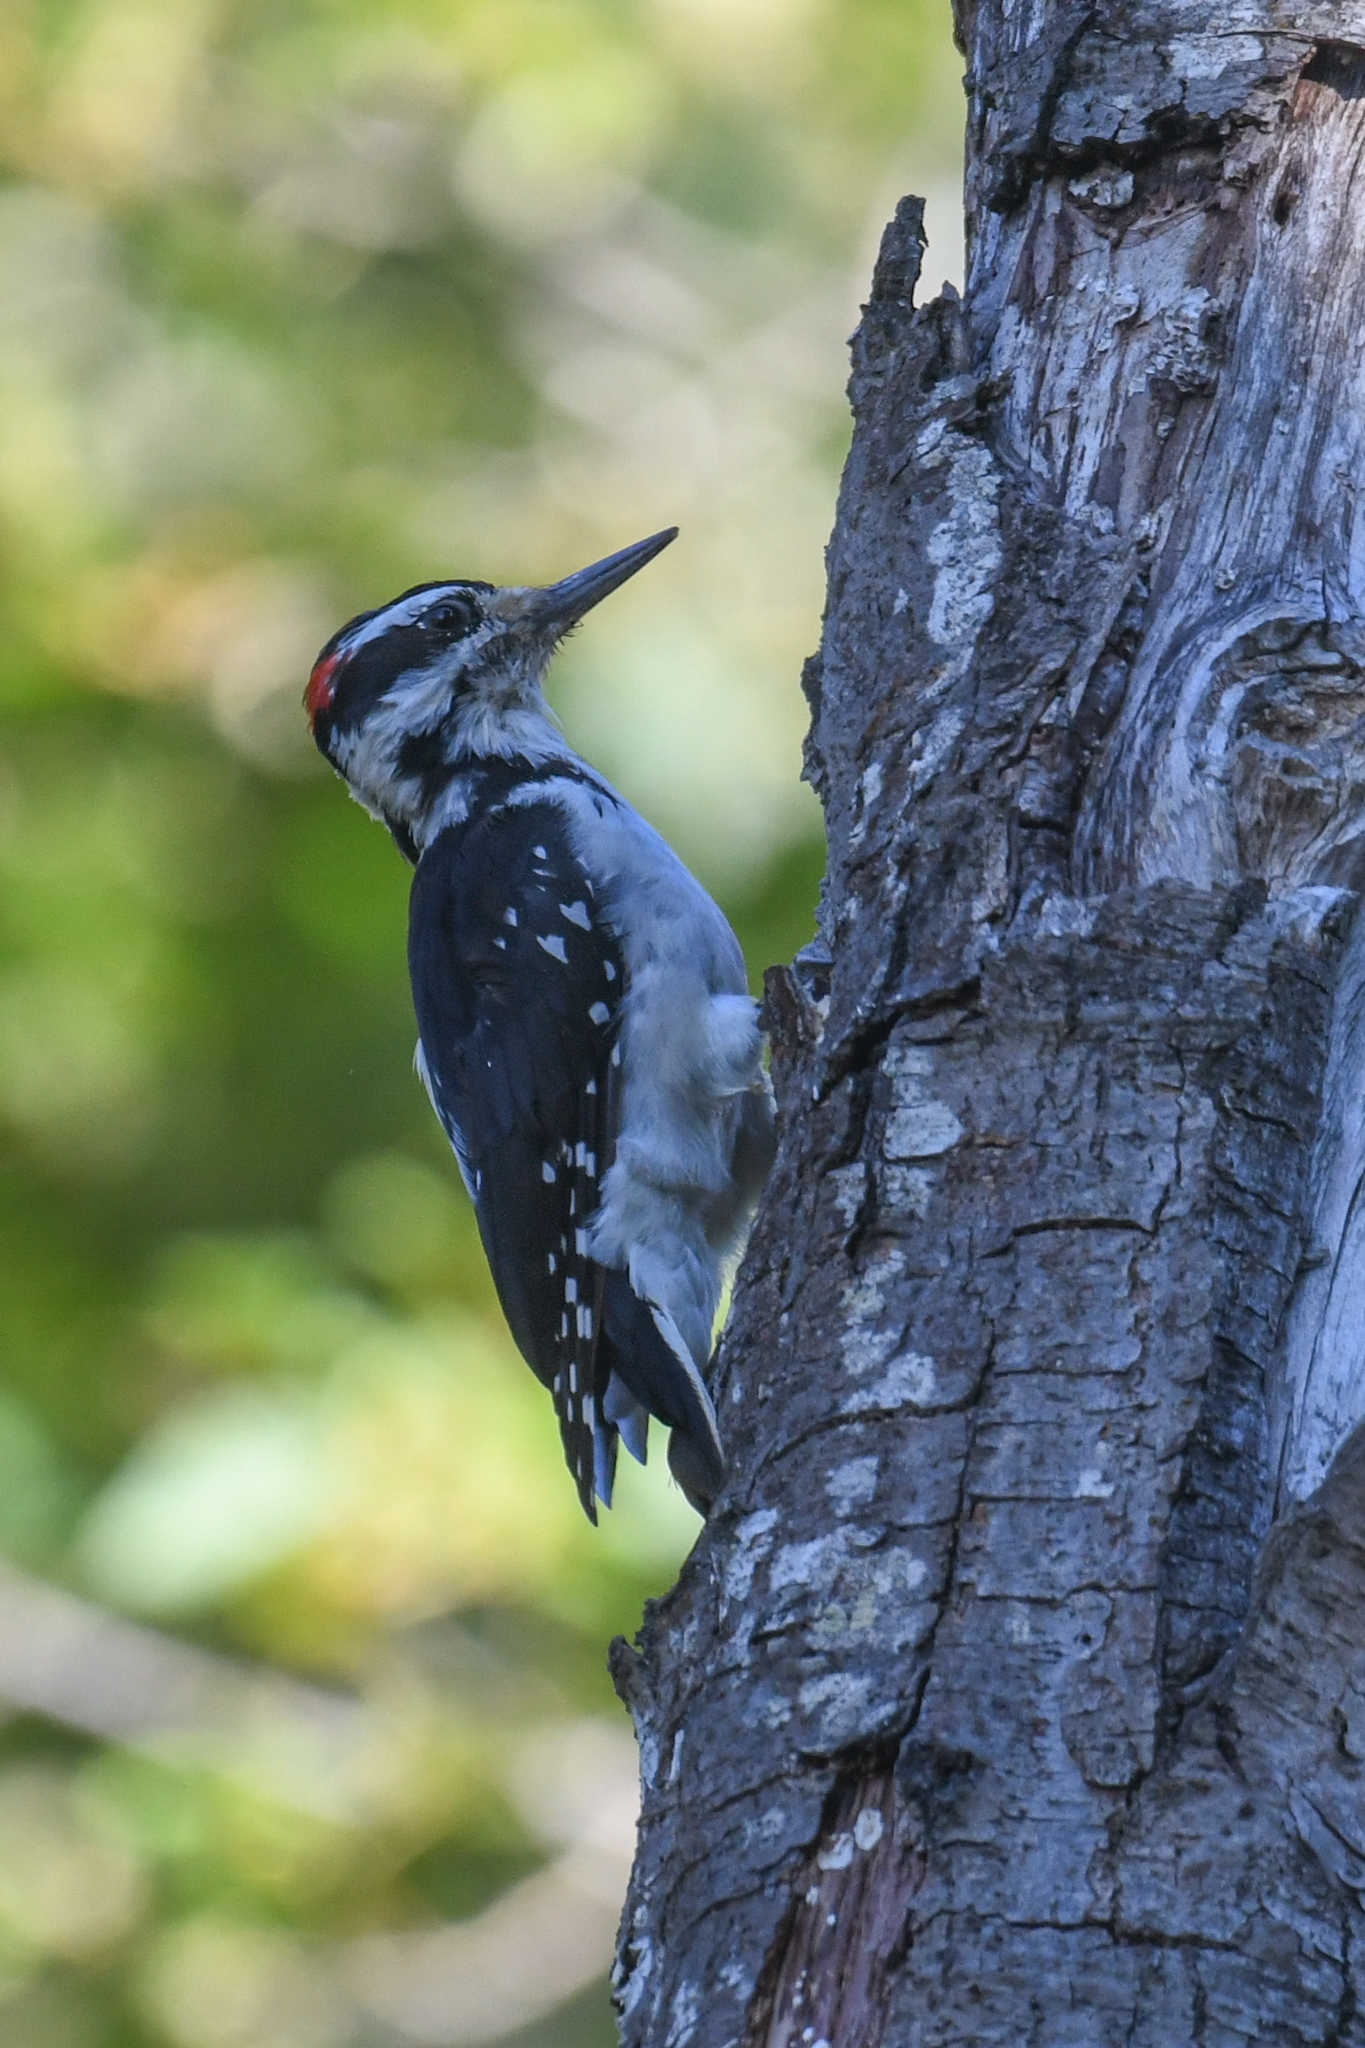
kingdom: Animalia
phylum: Chordata
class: Aves
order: Piciformes
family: Picidae
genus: Leuconotopicus
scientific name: Leuconotopicus villosus
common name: Hairy woodpecker
